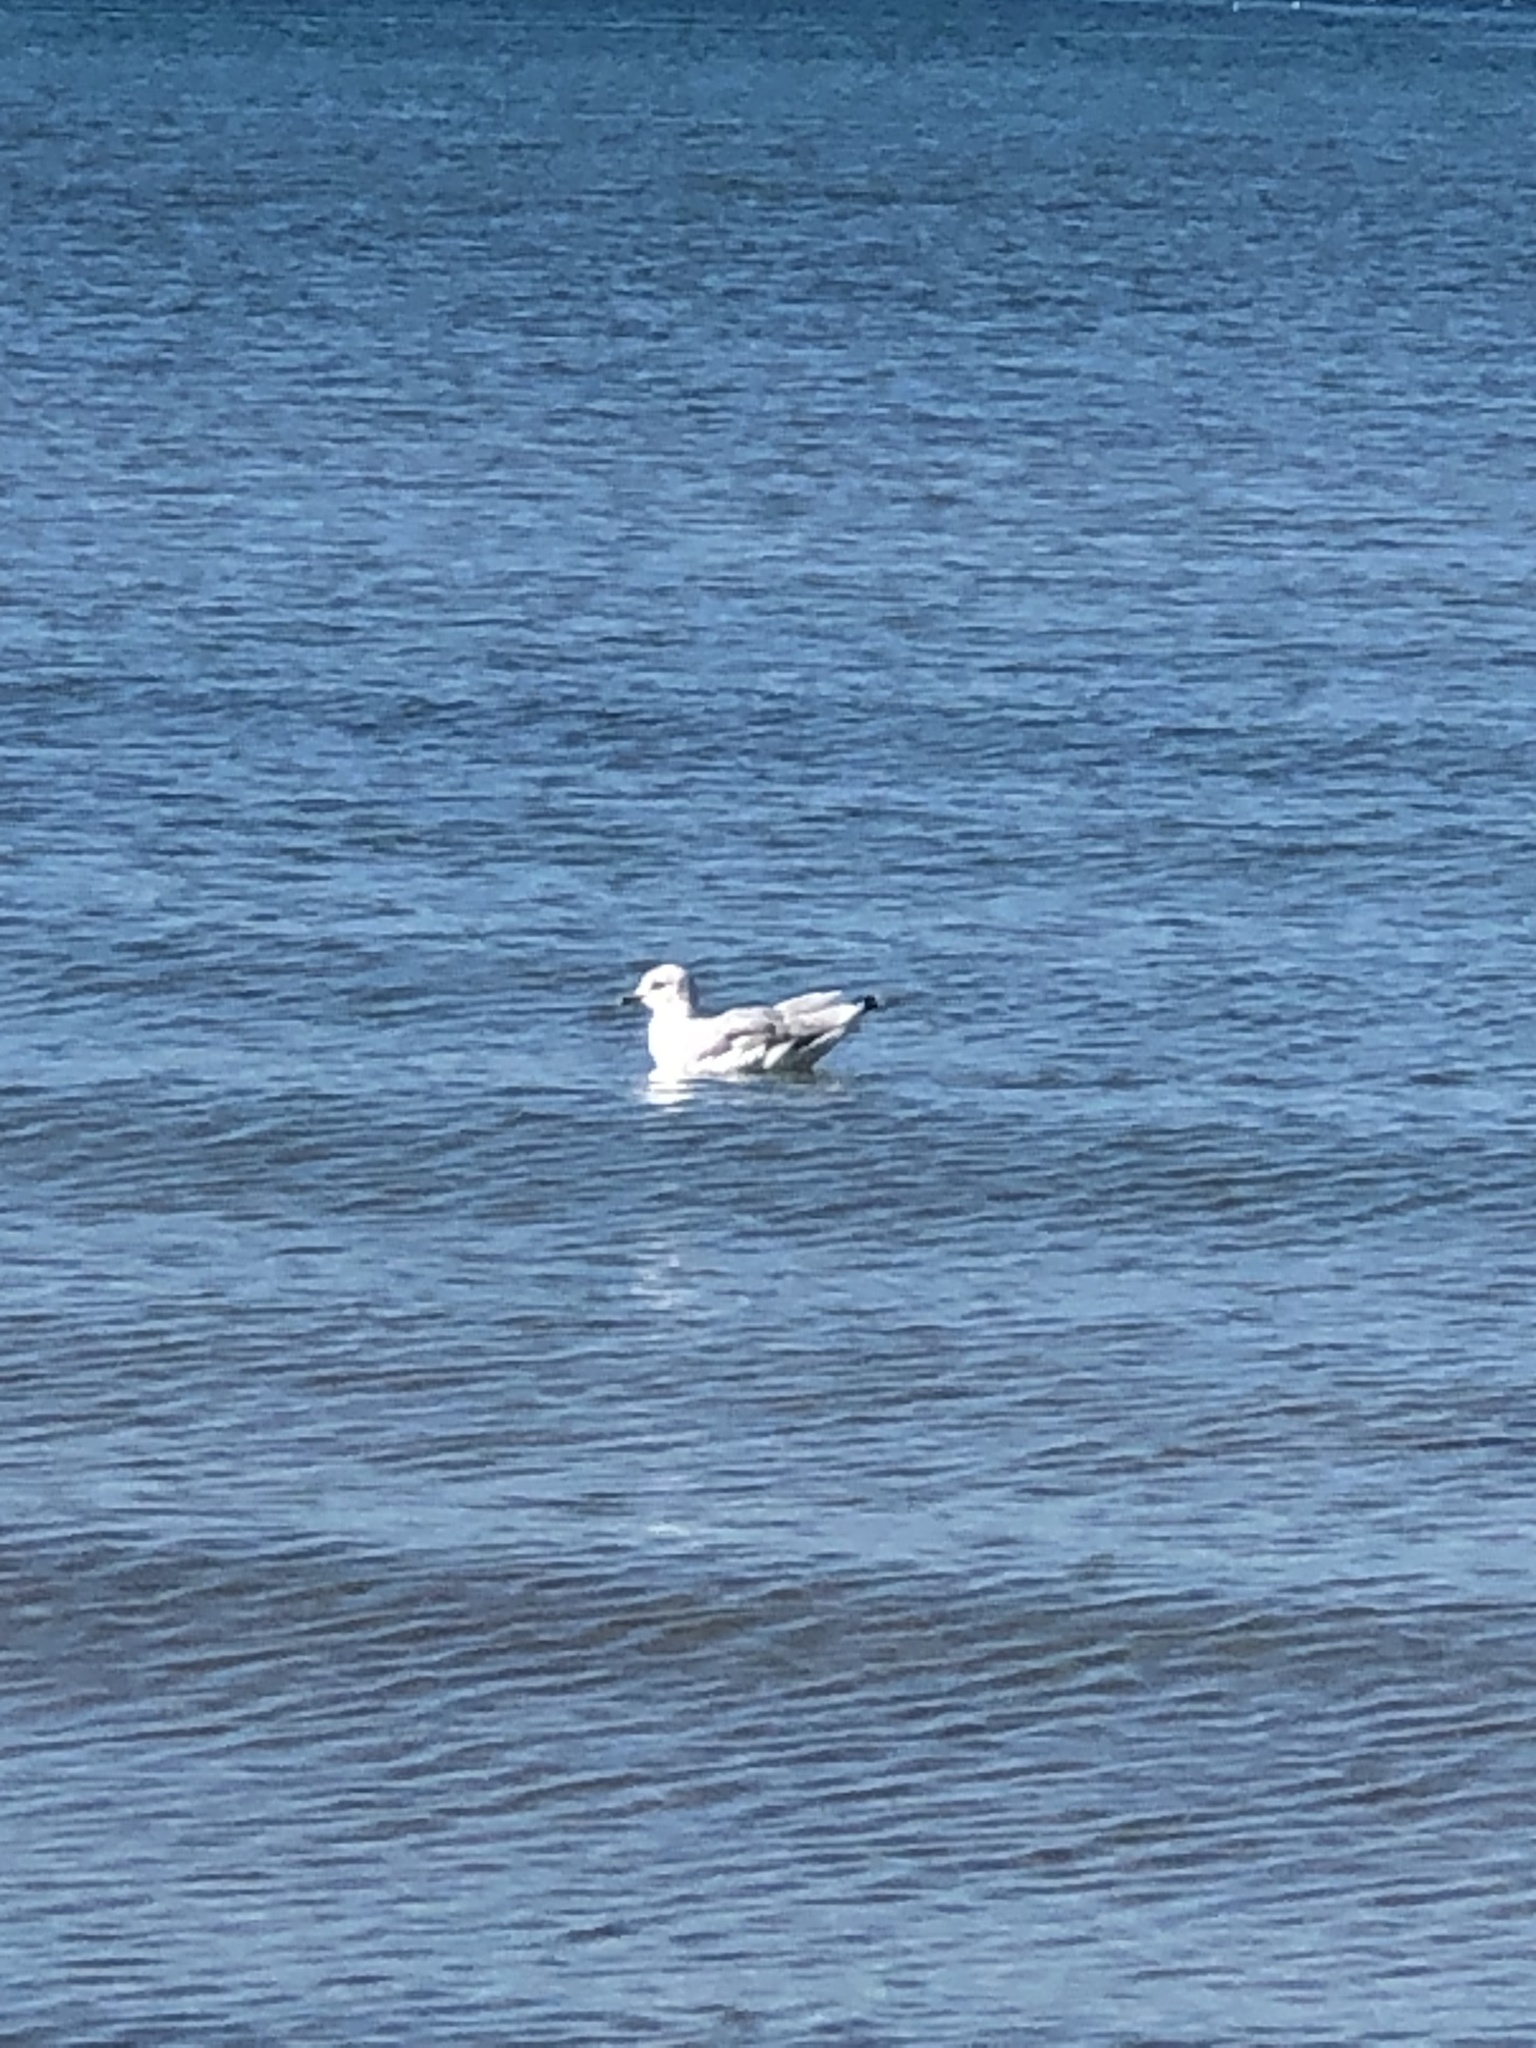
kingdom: Animalia
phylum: Chordata
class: Aves
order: Charadriiformes
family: Laridae
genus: Larus
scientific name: Larus delawarensis
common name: Ring-billed gull
